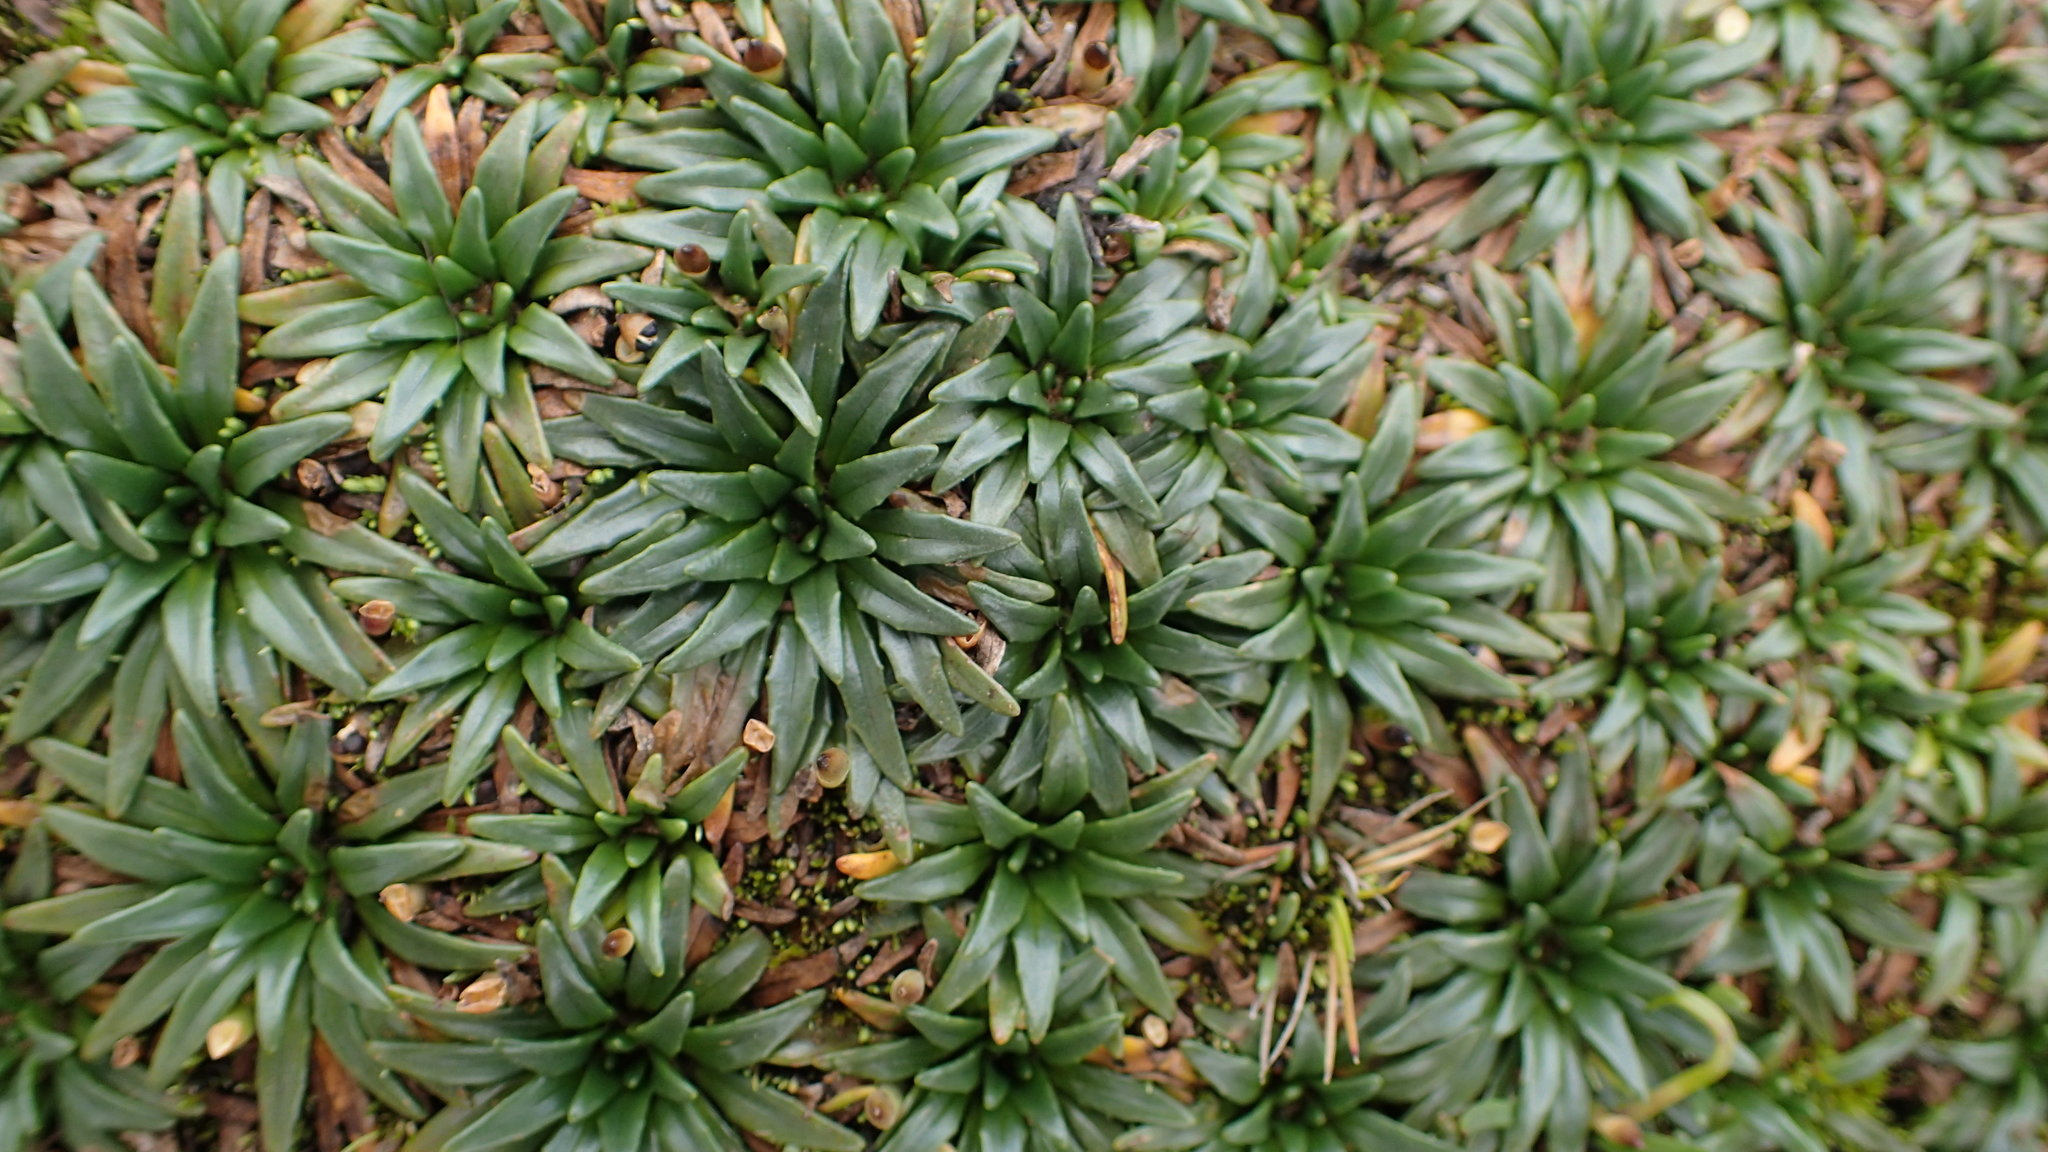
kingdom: Plantae
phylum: Tracheophyta
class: Magnoliopsida
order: Lamiales
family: Plantaginaceae
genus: Plantago
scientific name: Plantago rigida
